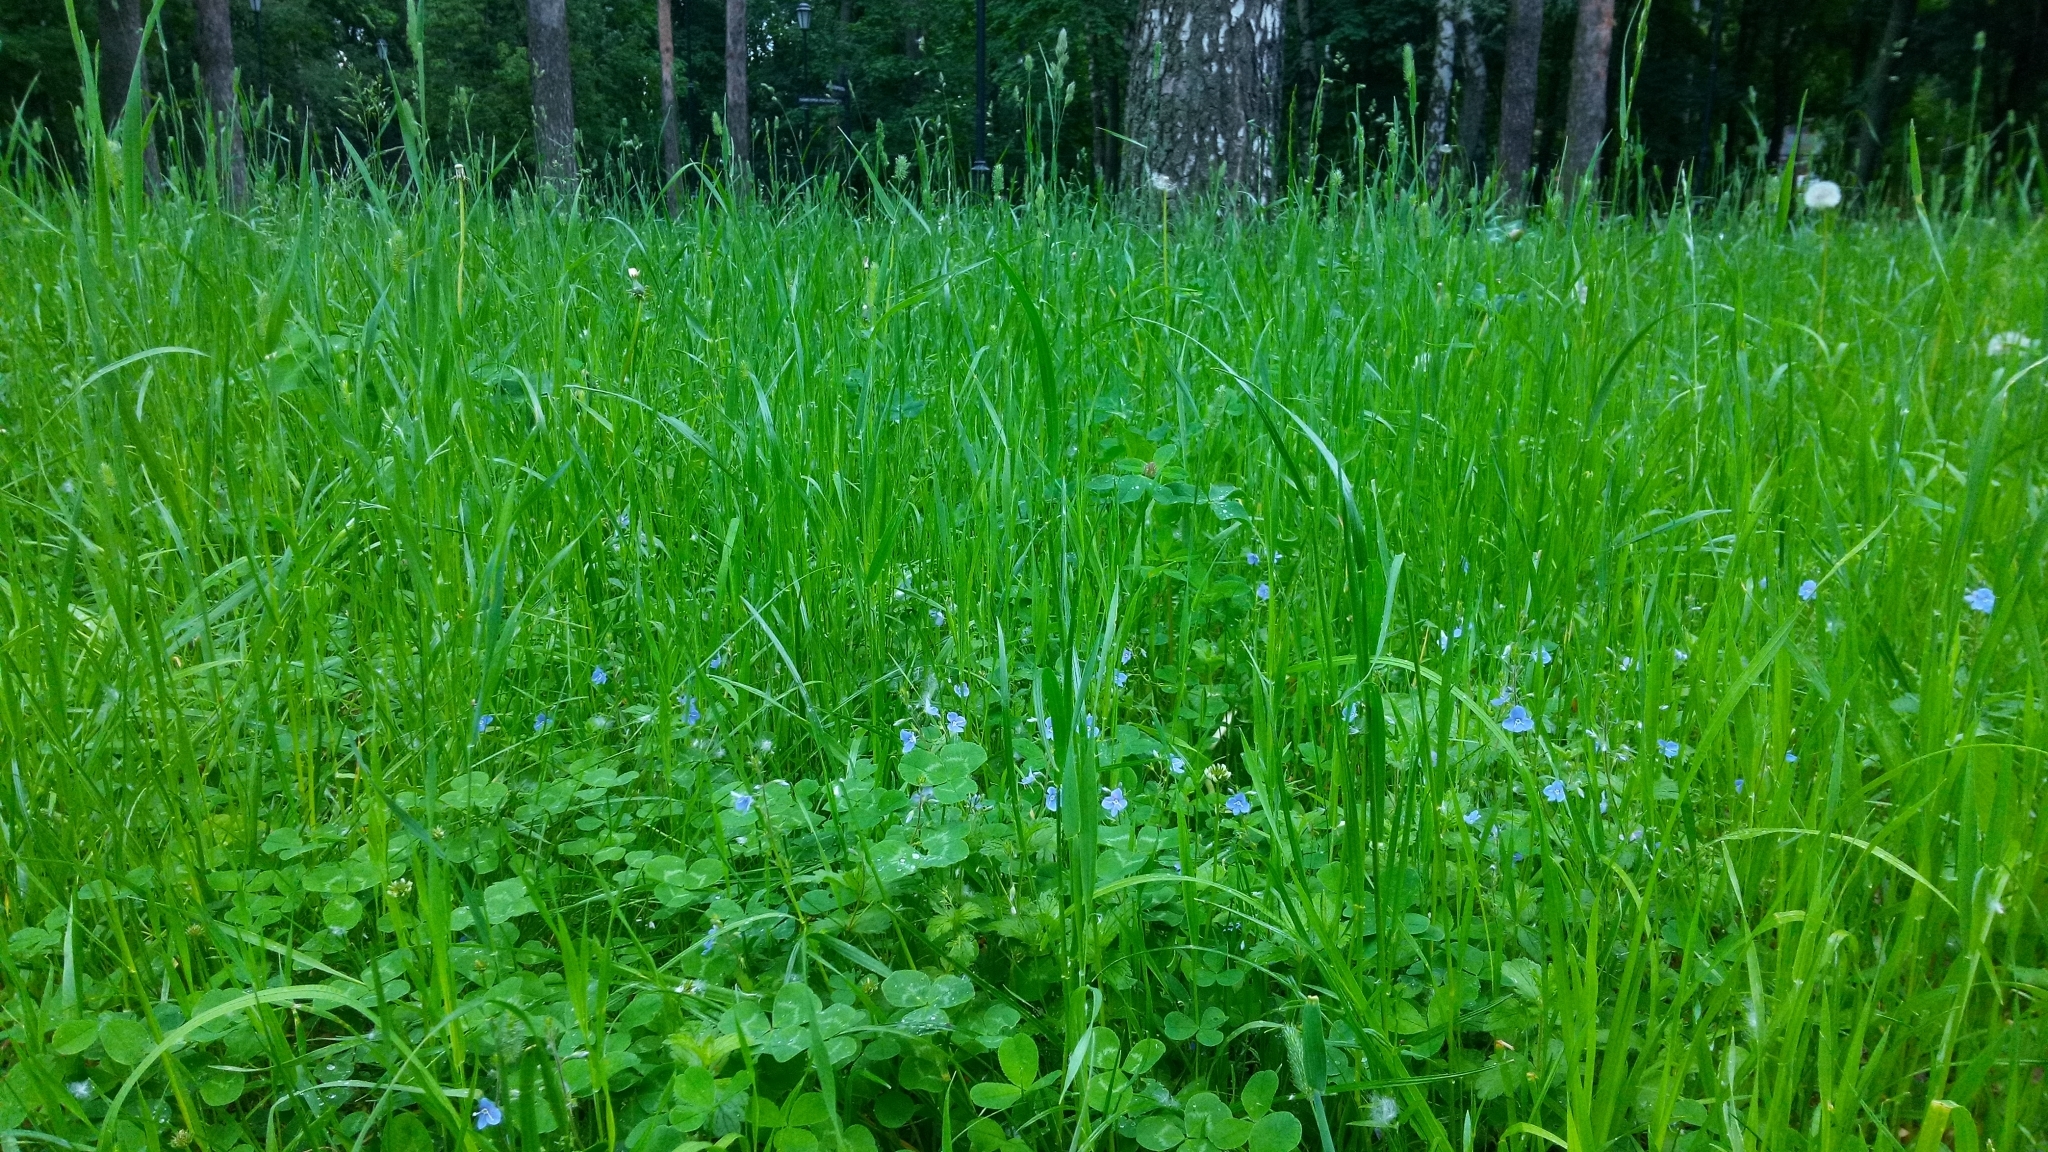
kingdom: Plantae
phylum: Tracheophyta
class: Magnoliopsida
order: Lamiales
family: Plantaginaceae
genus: Veronica
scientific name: Veronica chamaedrys
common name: Germander speedwell
